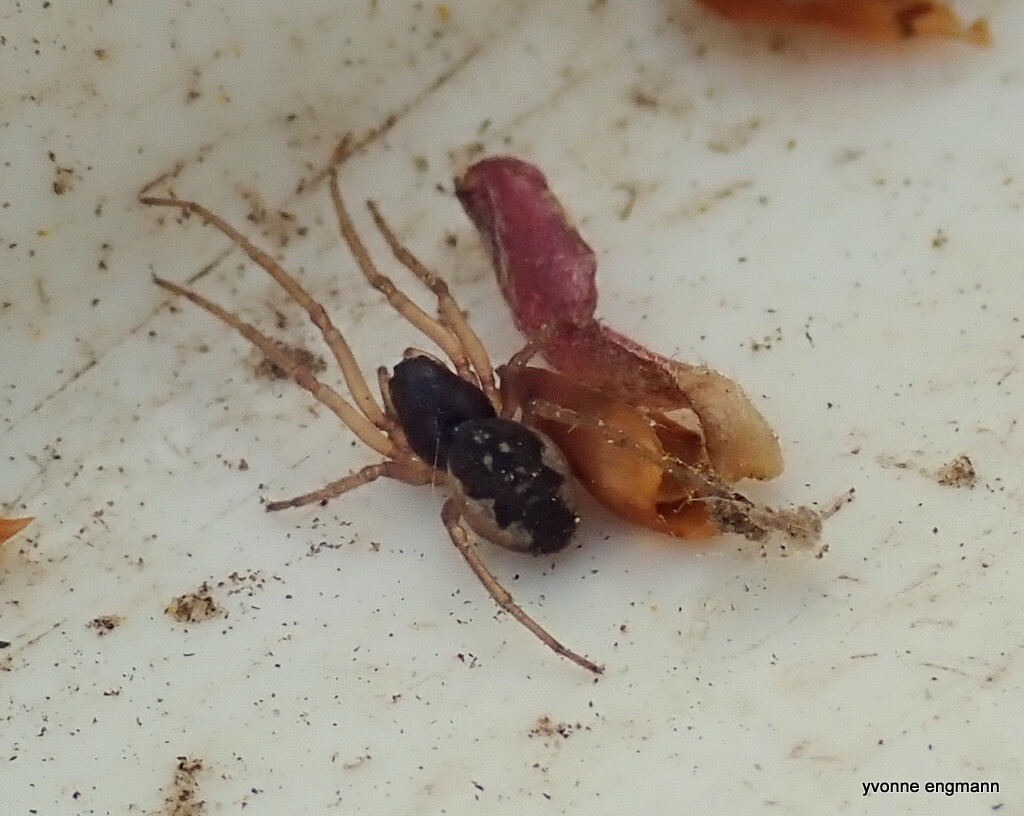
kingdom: Animalia
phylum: Arthropoda
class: Arachnida
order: Araneae
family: Tetragnathidae
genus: Pachygnatha
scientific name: Pachygnatha degeeri
